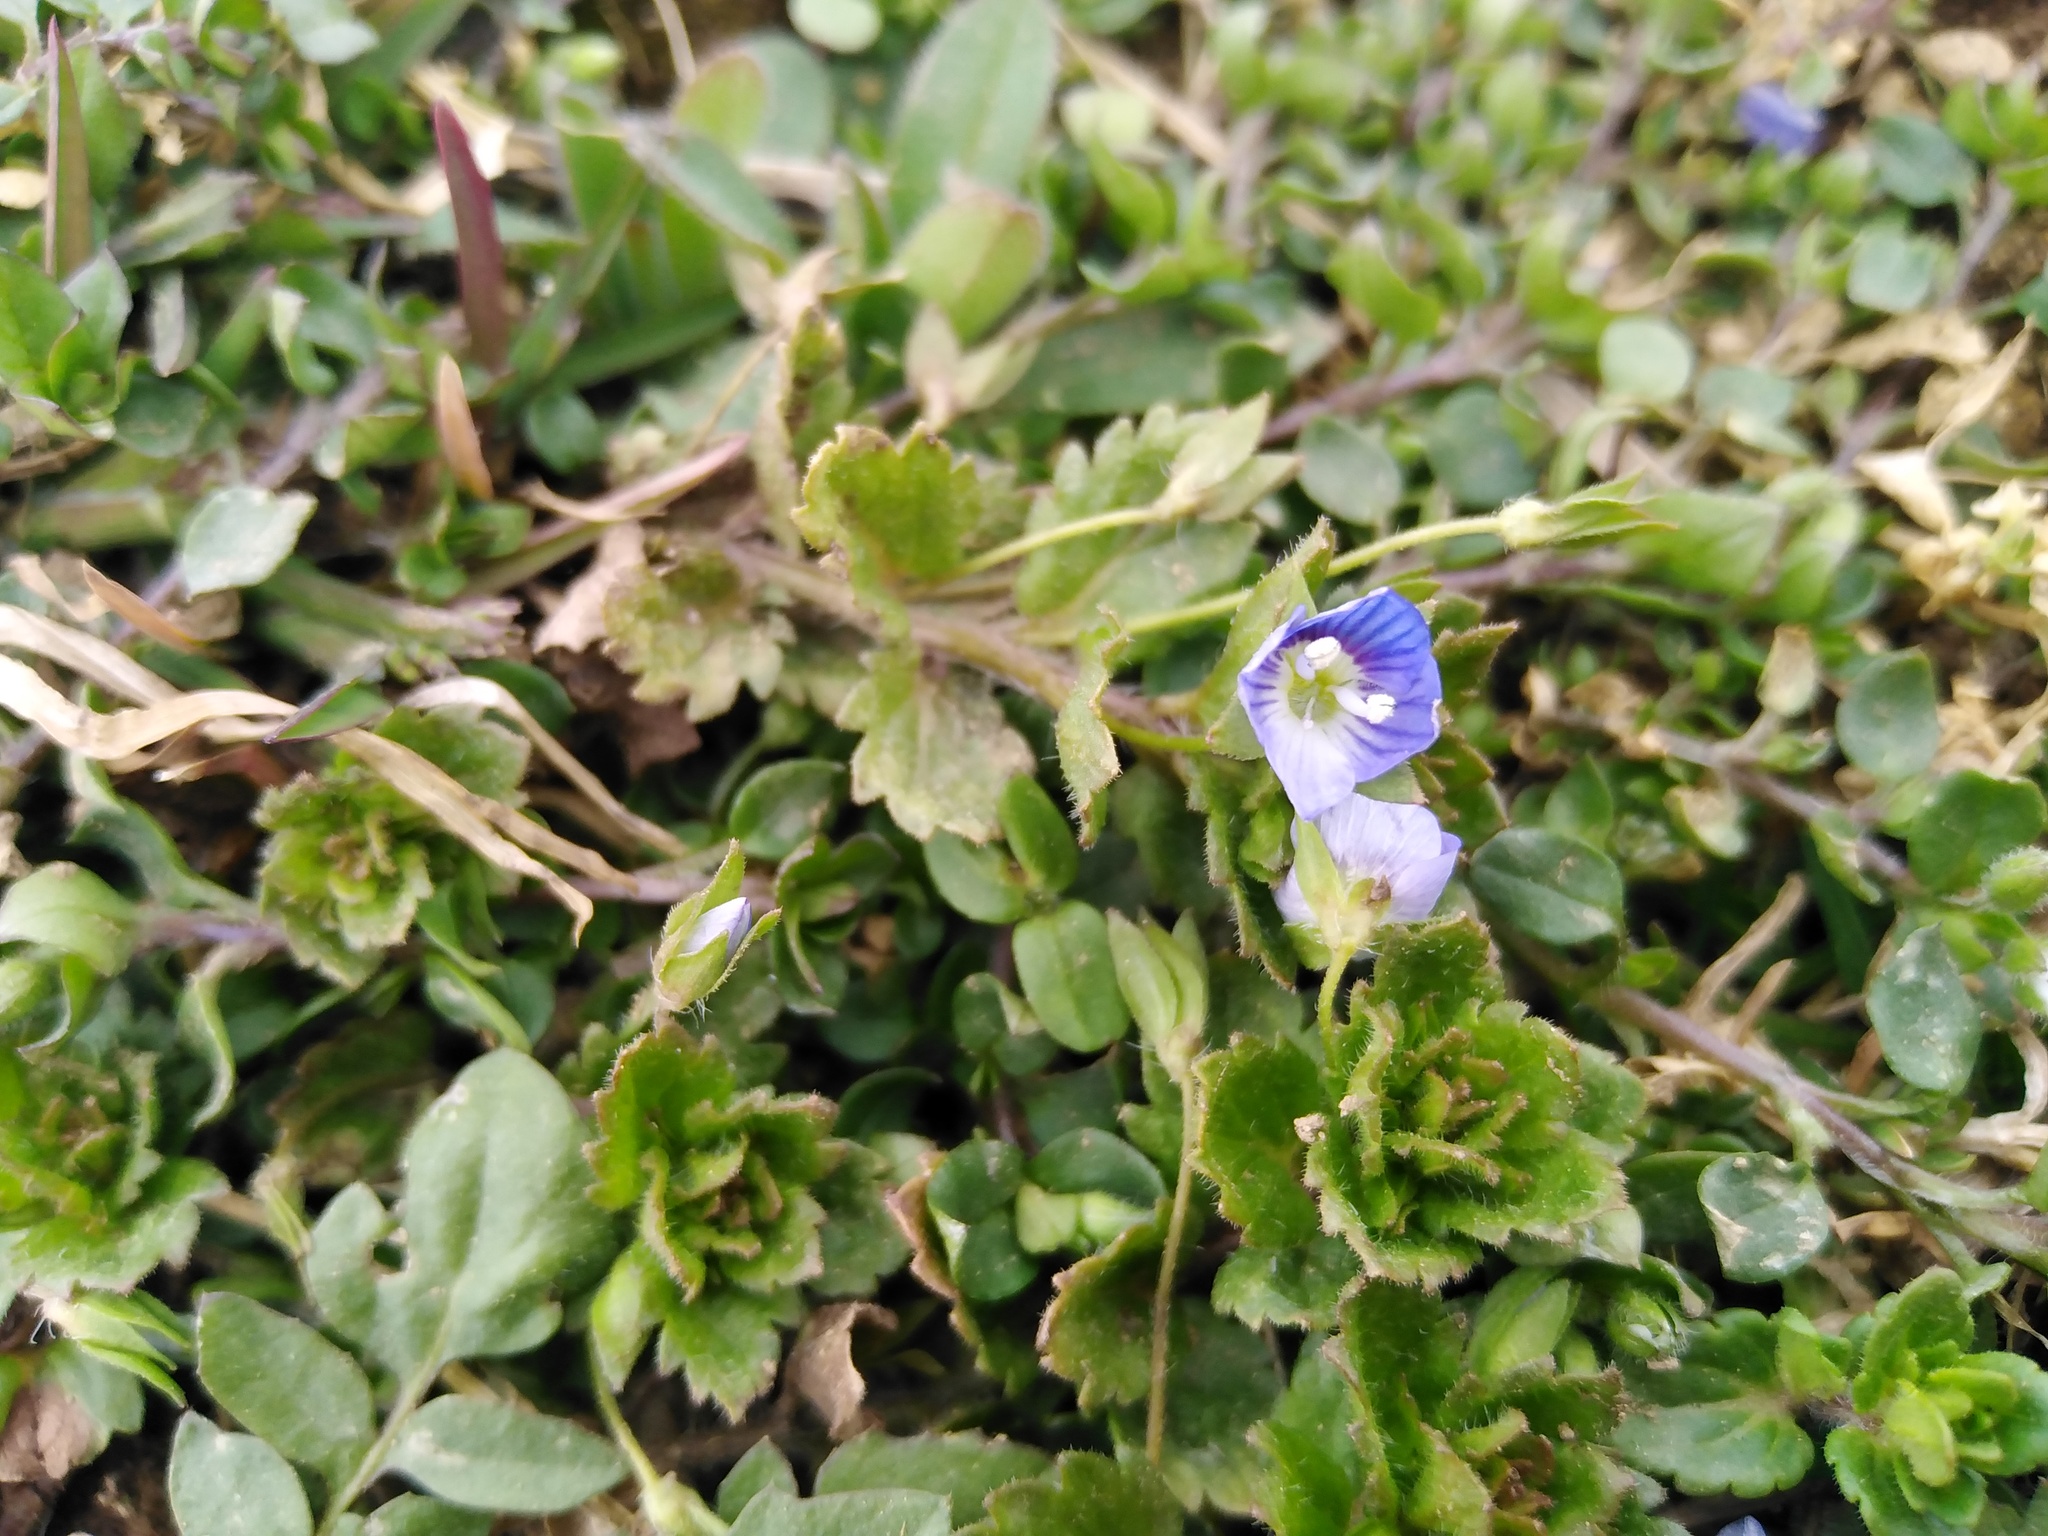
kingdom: Plantae
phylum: Tracheophyta
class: Magnoliopsida
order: Lamiales
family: Plantaginaceae
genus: Veronica
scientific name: Veronica persica
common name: Common field-speedwell
